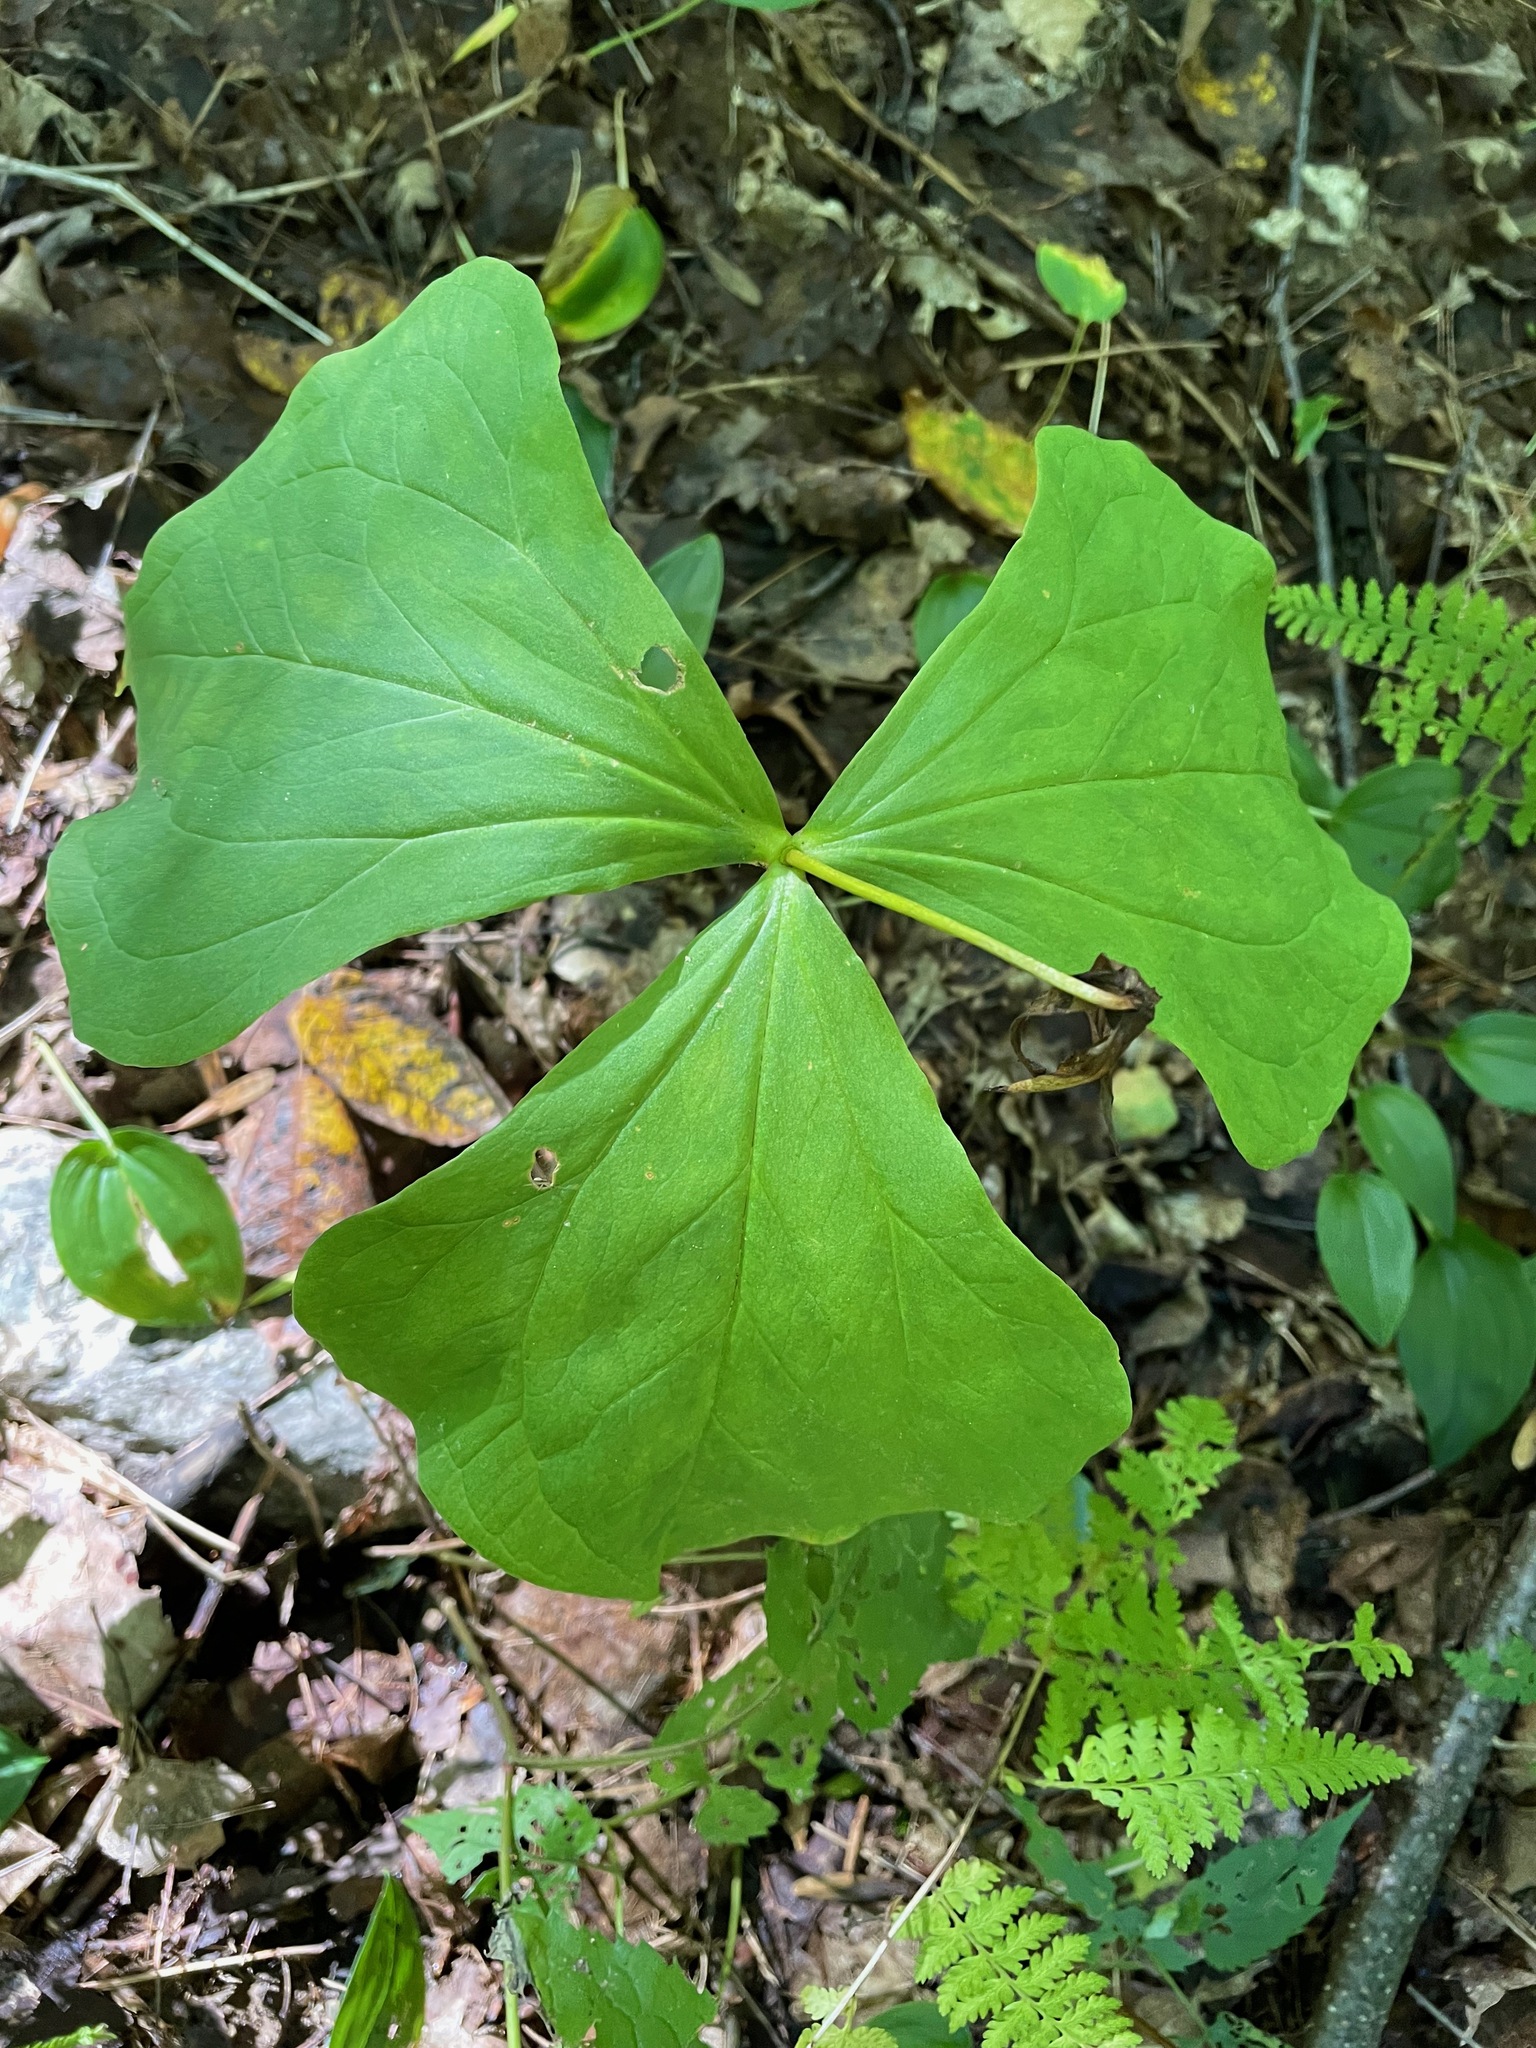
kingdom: Plantae
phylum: Tracheophyta
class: Liliopsida
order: Liliales
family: Melanthiaceae
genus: Trillium
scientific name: Trillium erectum
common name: Purple trillium
